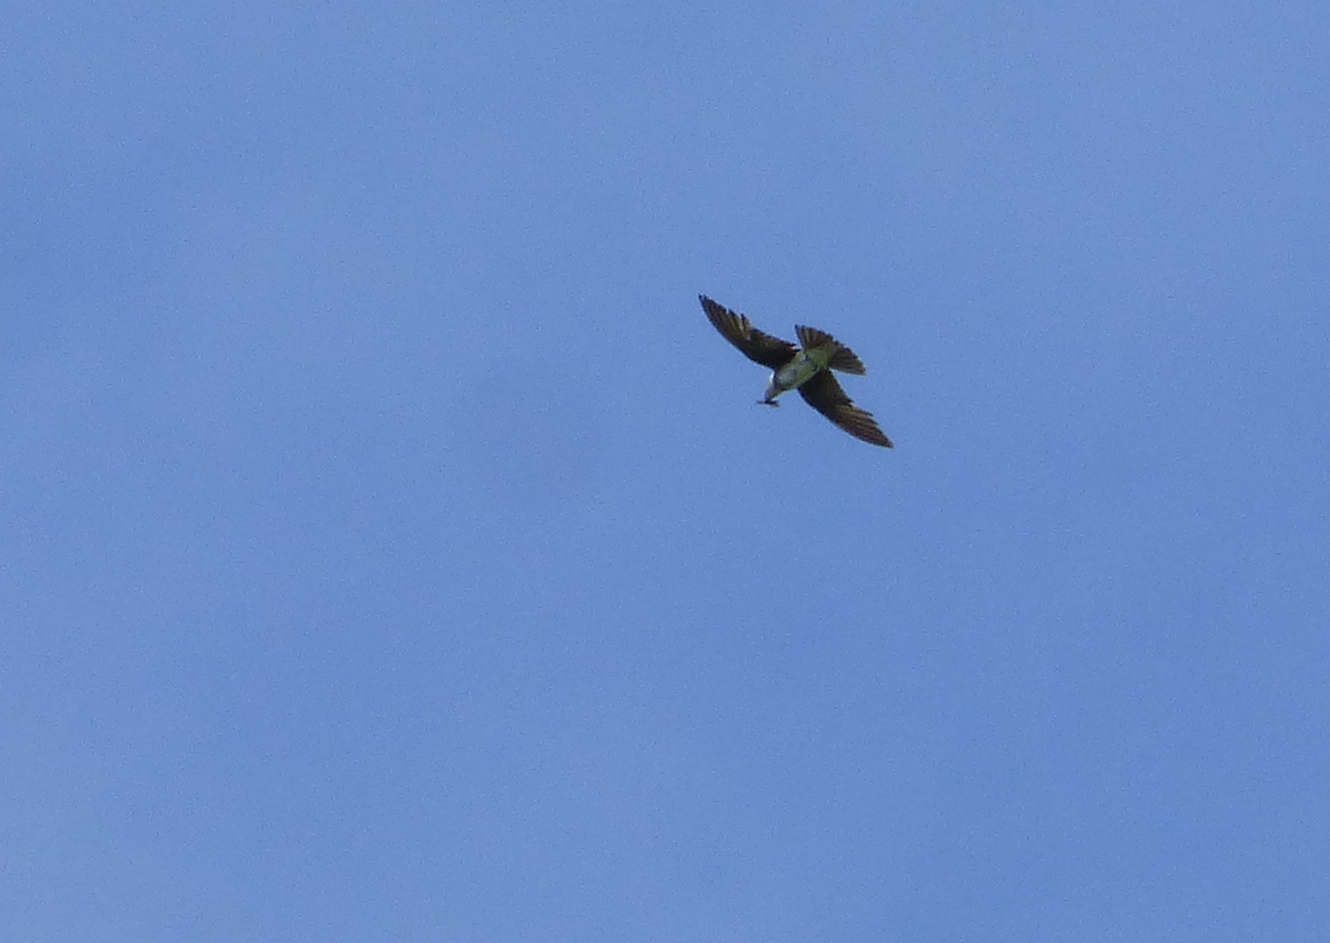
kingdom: Animalia
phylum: Chordata
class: Aves
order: Passeriformes
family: Hirundinidae
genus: Progne
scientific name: Progne tapera
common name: Brown-chested martin
